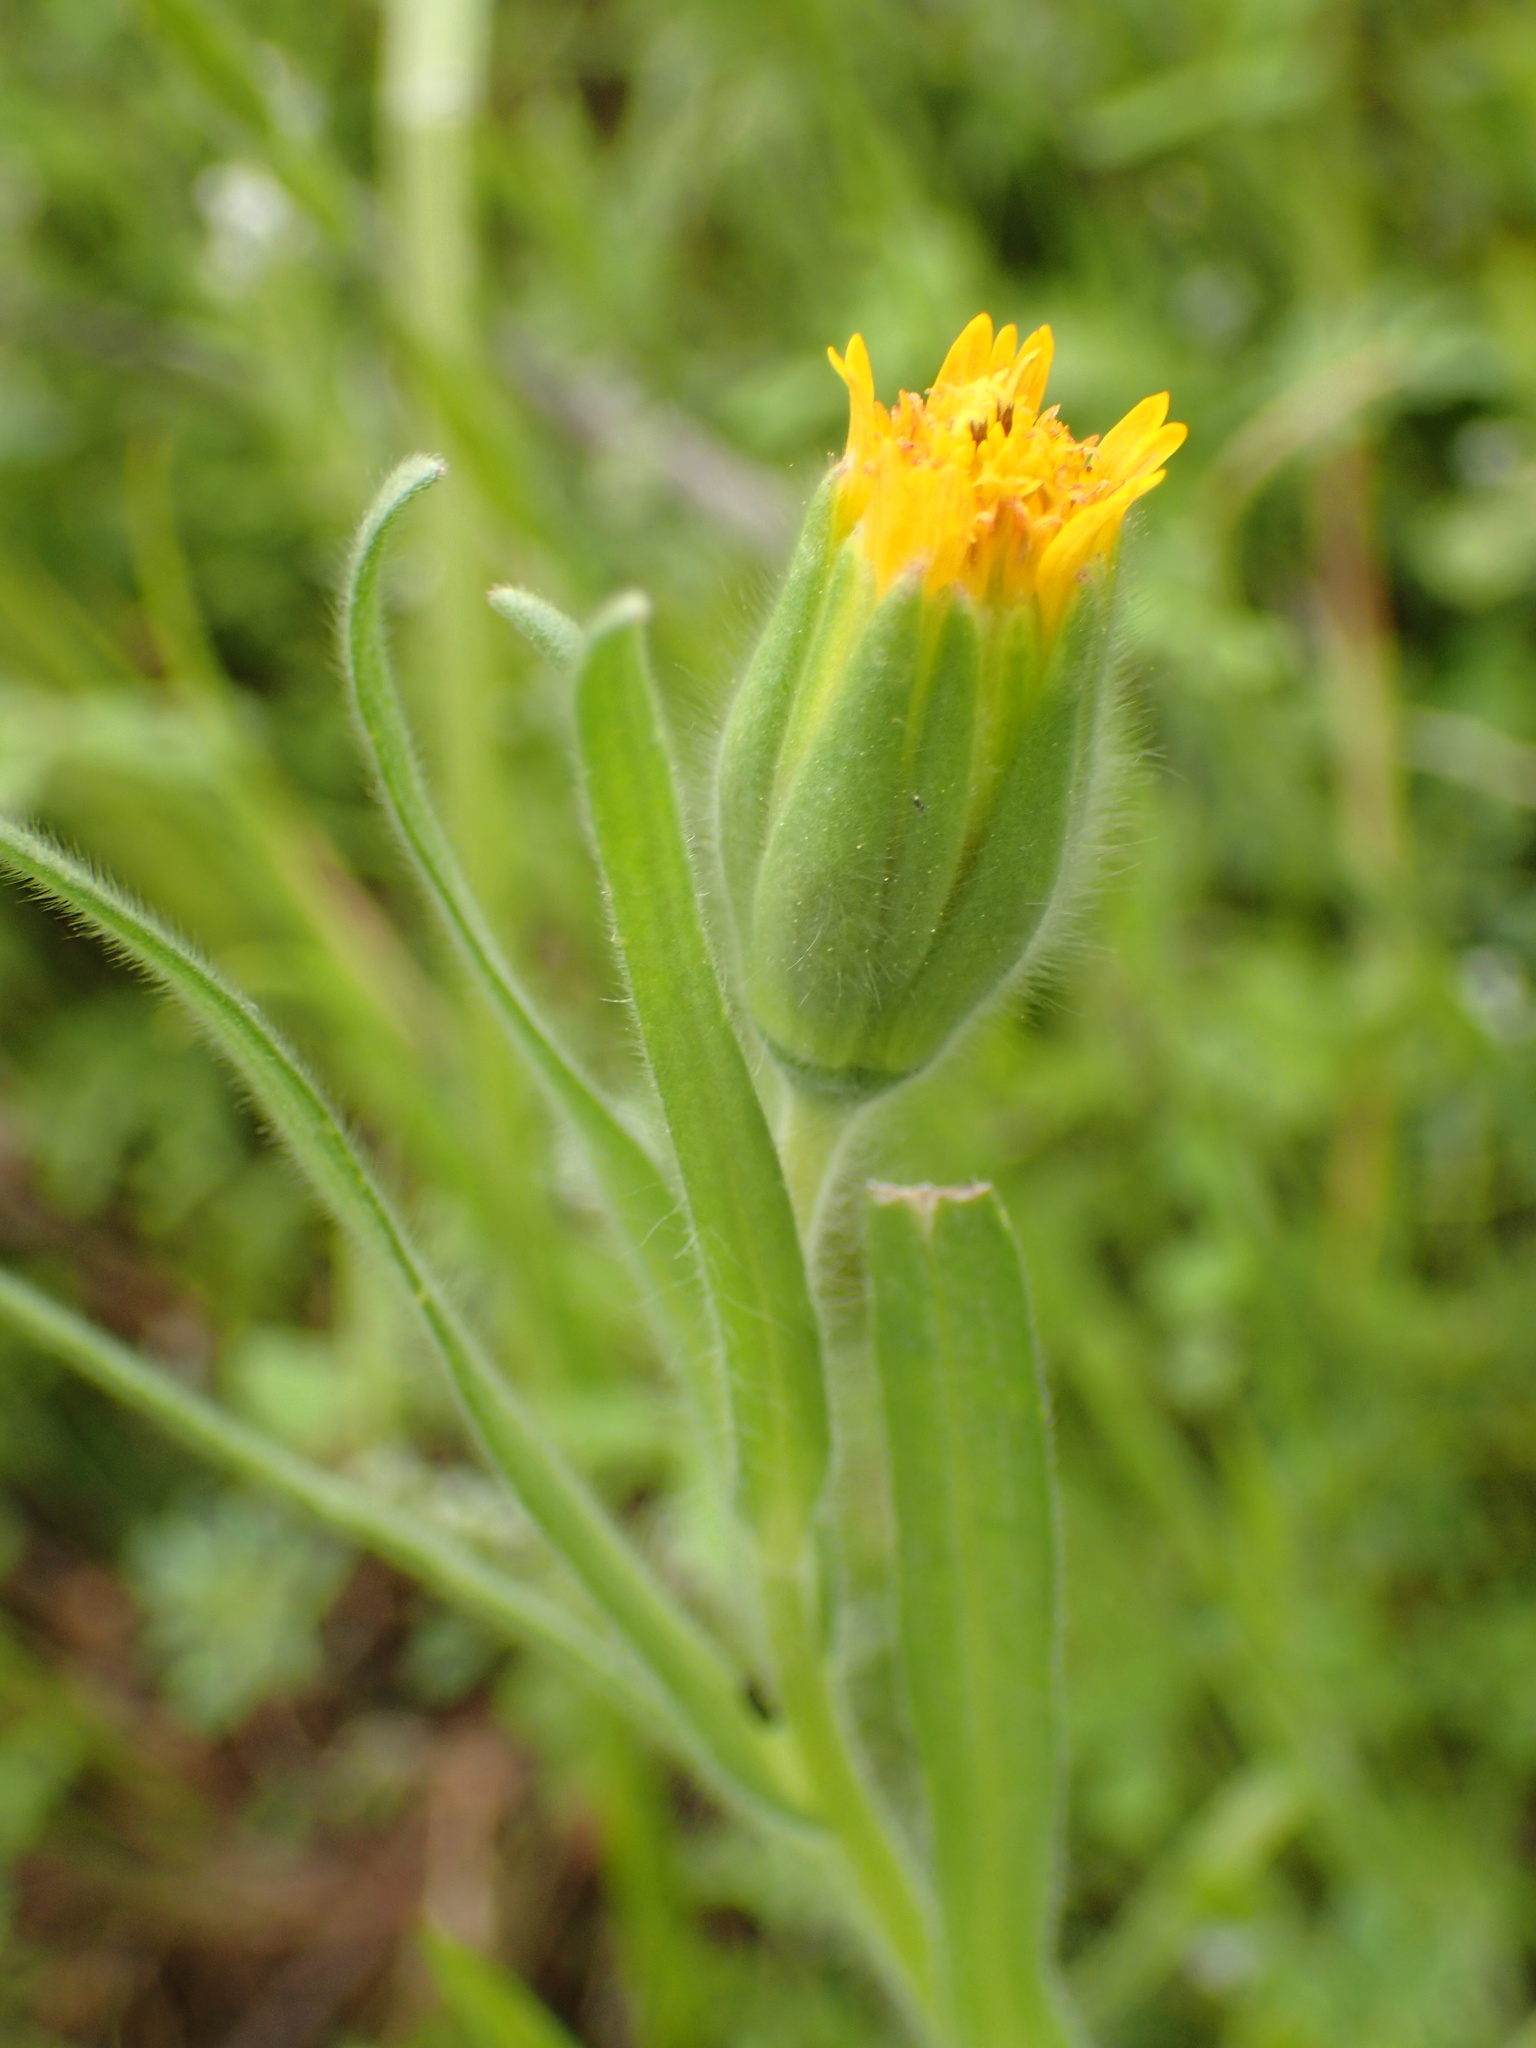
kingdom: Plantae
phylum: Tracheophyta
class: Magnoliopsida
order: Asterales
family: Asteraceae
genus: Achyrachaena
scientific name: Achyrachaena mollis
